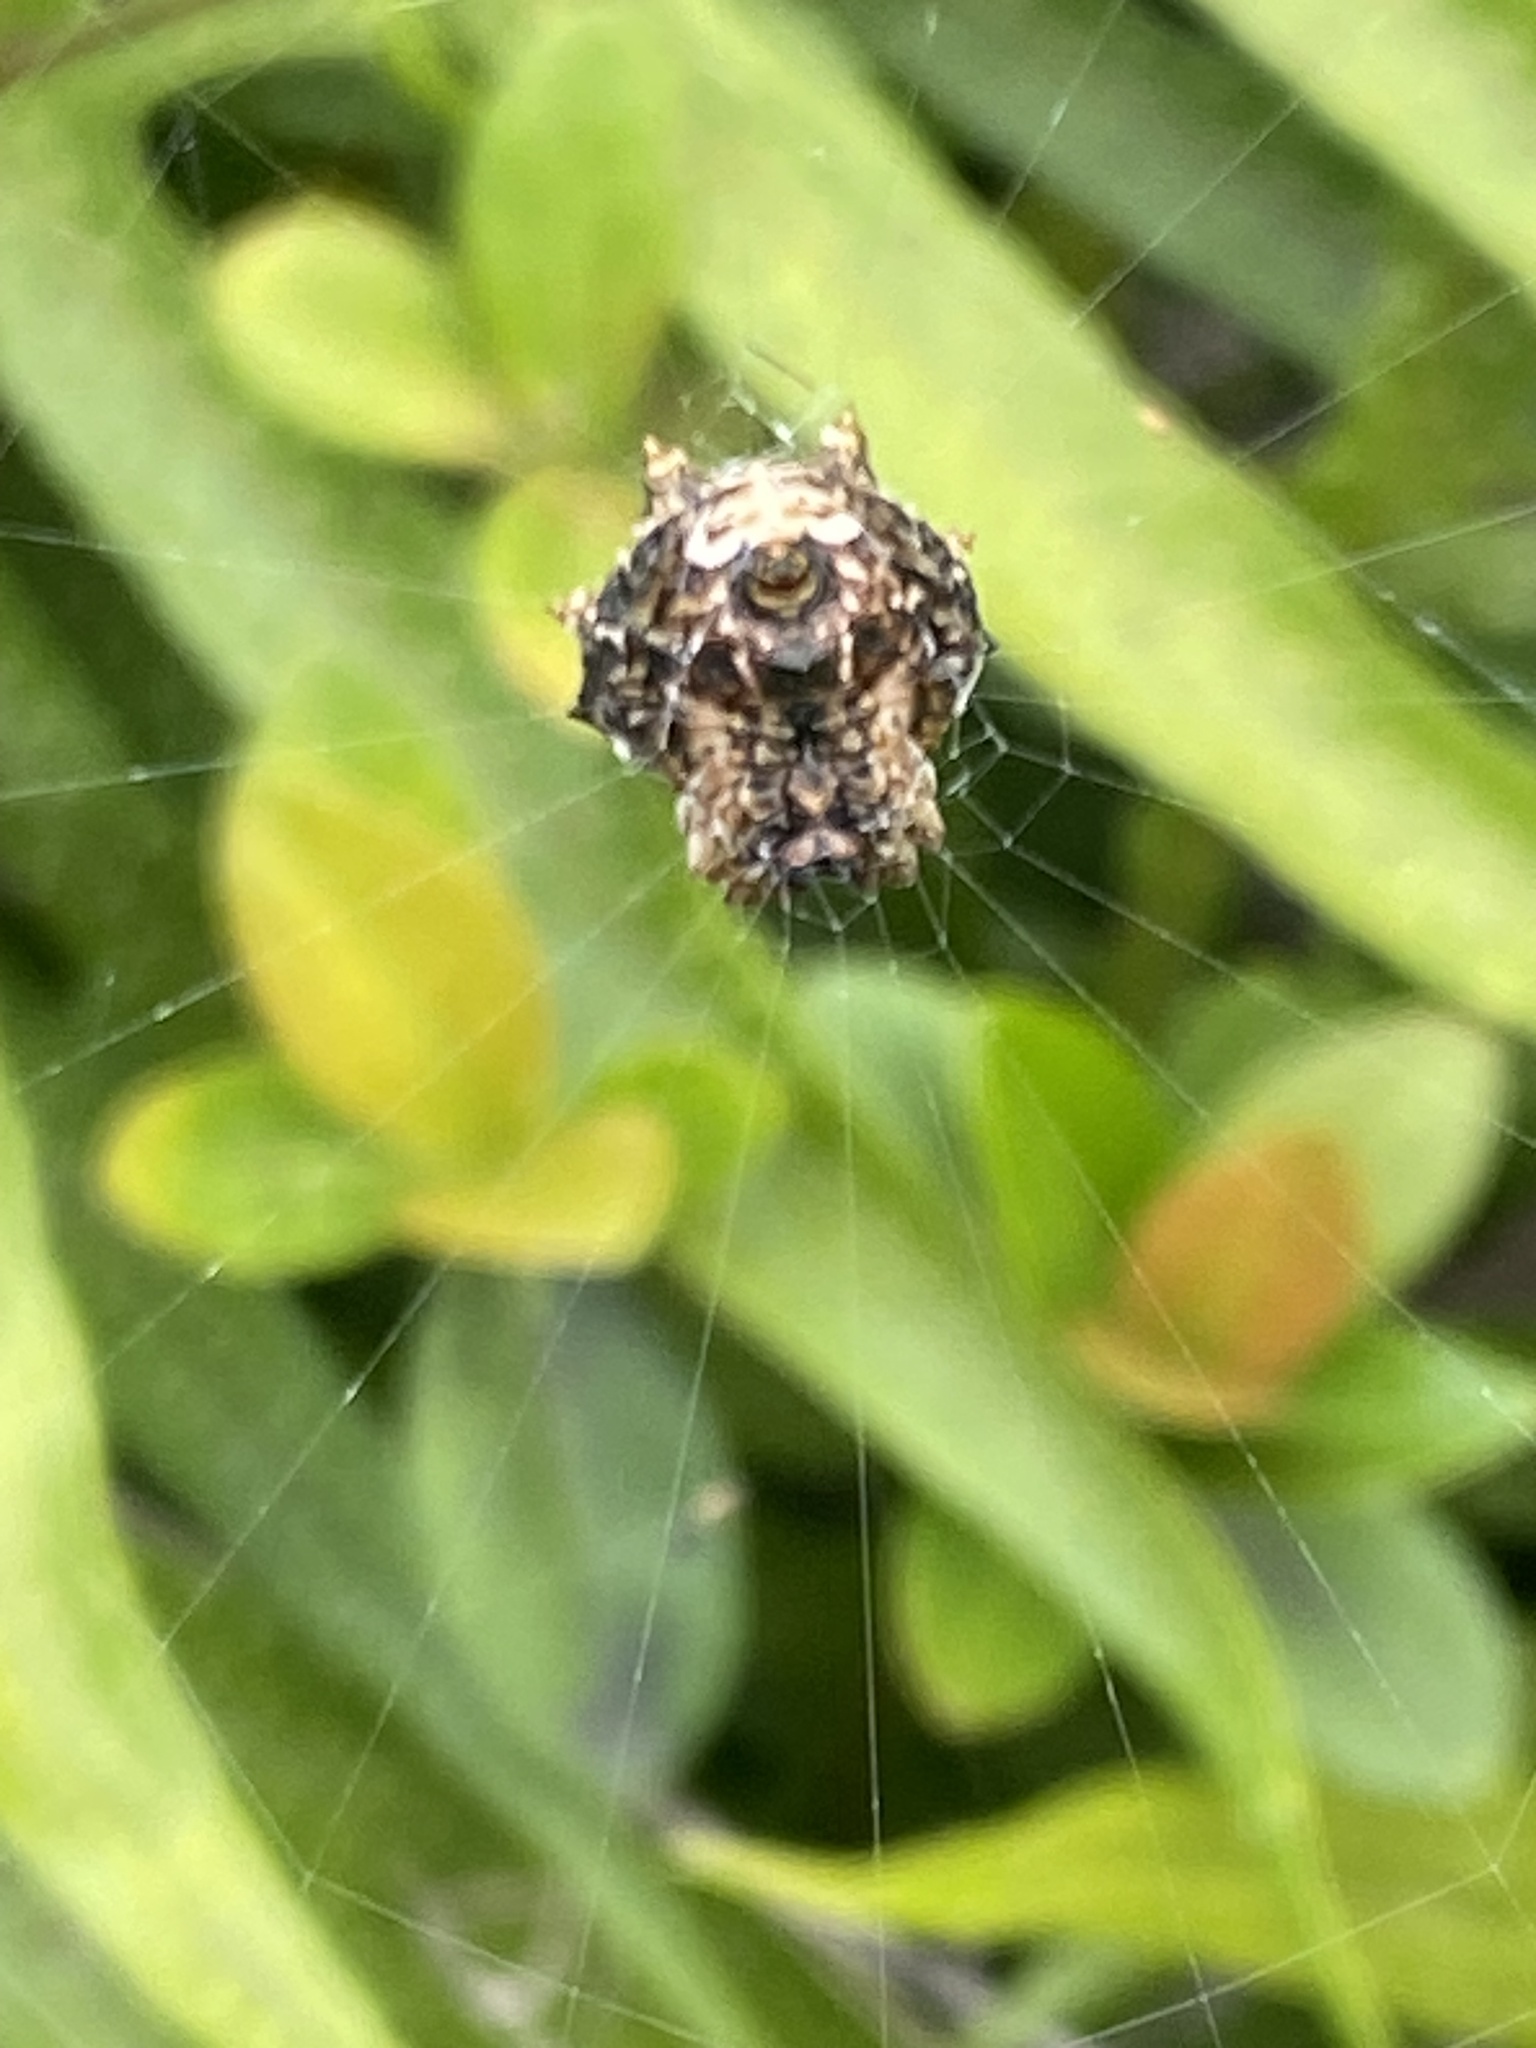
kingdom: Animalia
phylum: Arthropoda
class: Arachnida
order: Araneae
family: Araneidae
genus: Thelacantha
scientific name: Thelacantha brevispina
